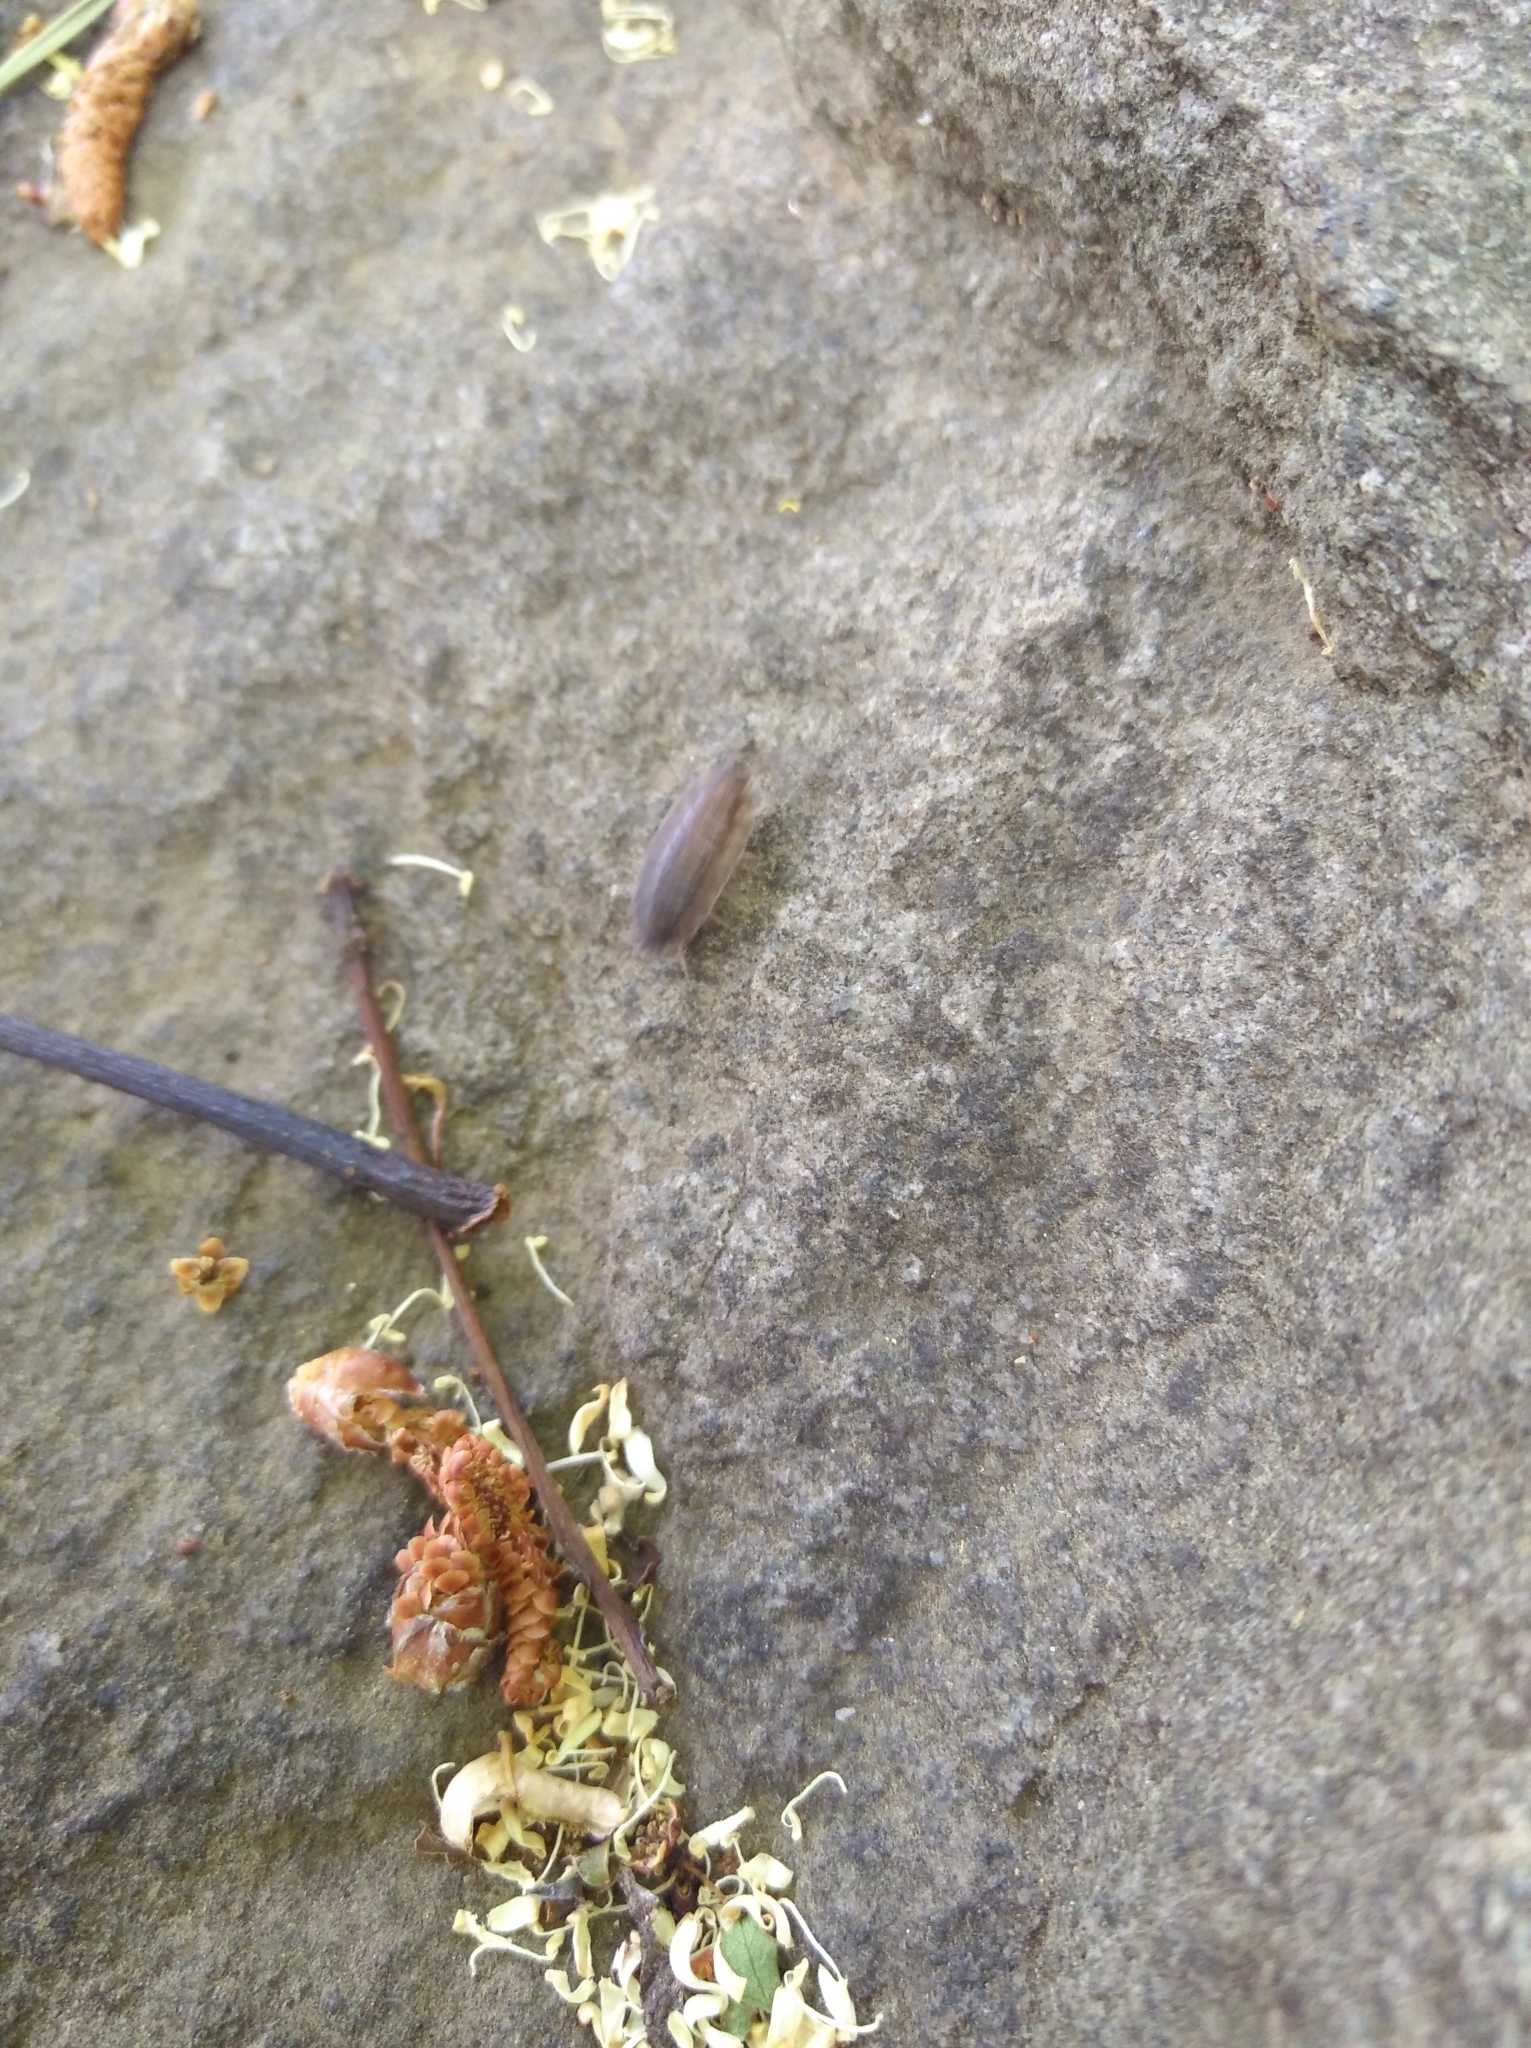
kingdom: Animalia
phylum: Arthropoda
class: Malacostraca
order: Isopoda
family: Porcellionidae
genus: Porcellio
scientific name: Porcellio scaber
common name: Common rough woodlouse
